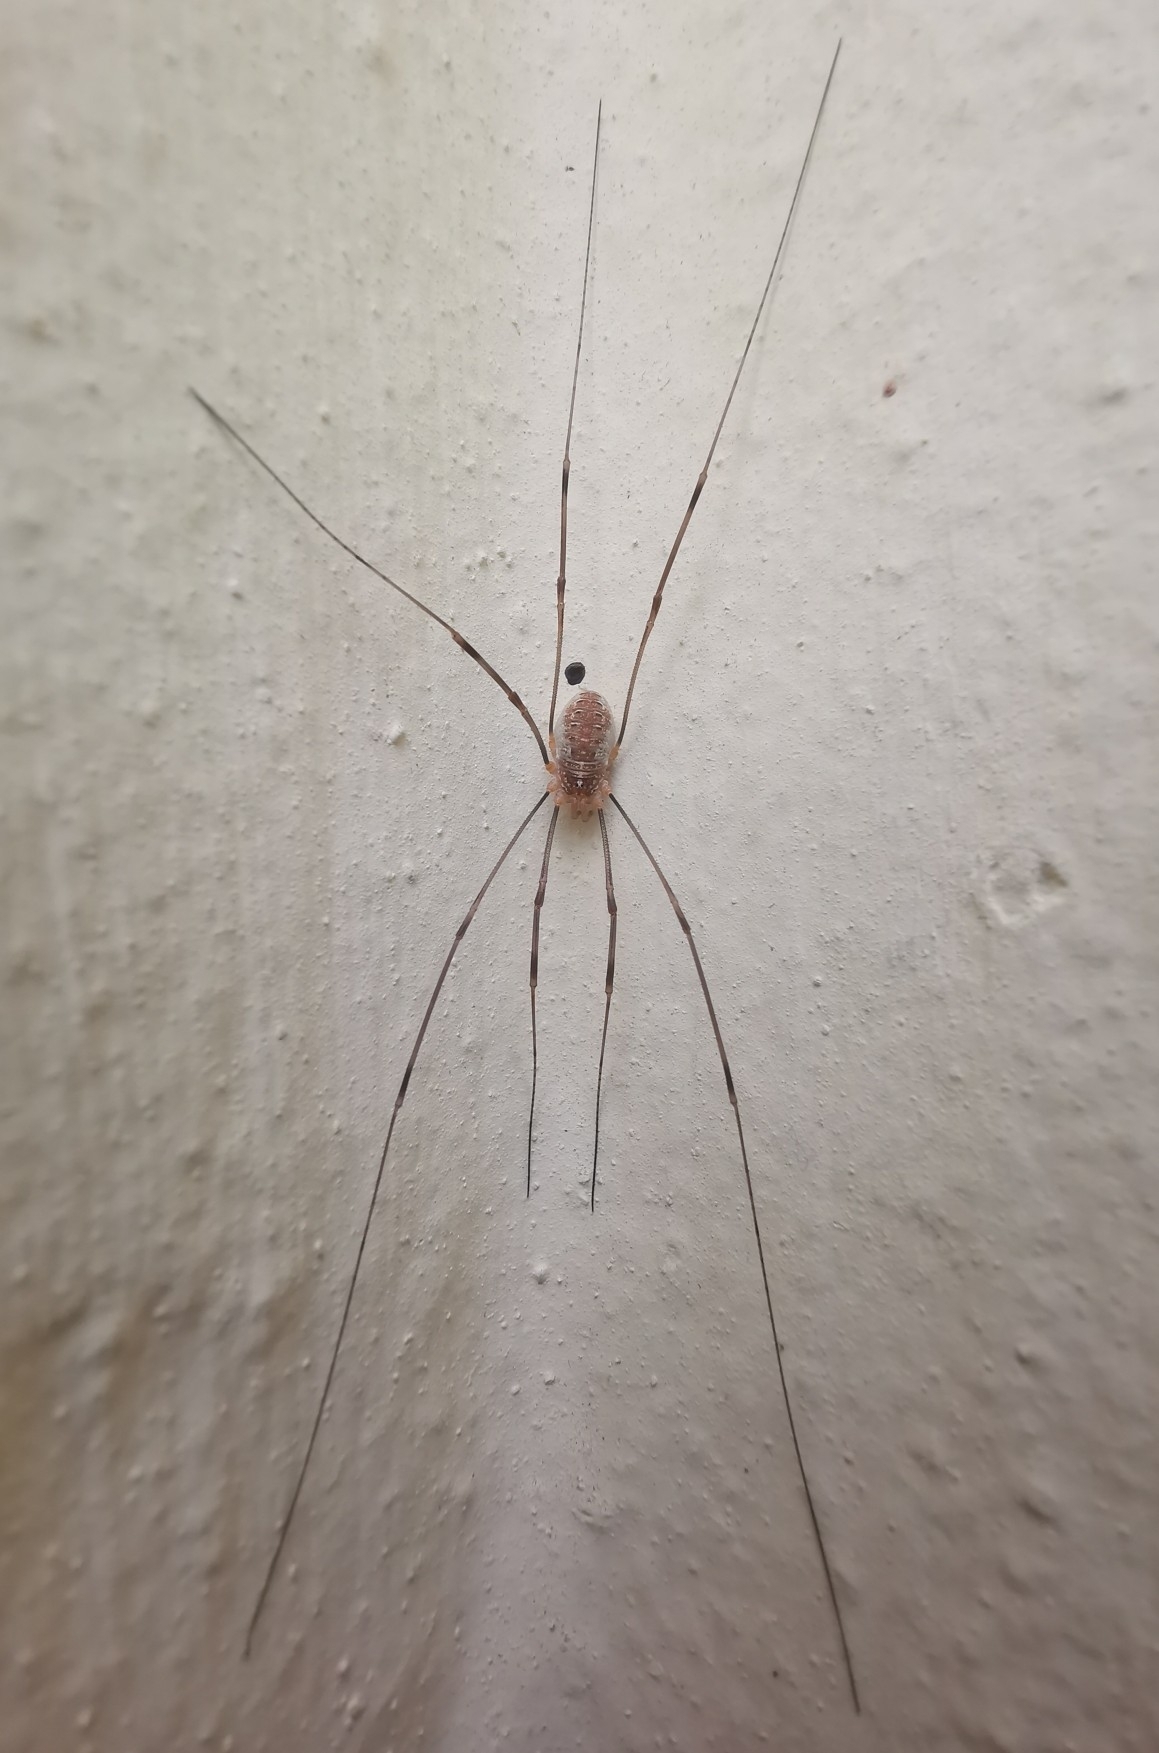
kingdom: Animalia
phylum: Arthropoda
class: Arachnida
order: Opiliones
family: Phalangiidae
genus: Opilio
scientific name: Opilio canestrinii
